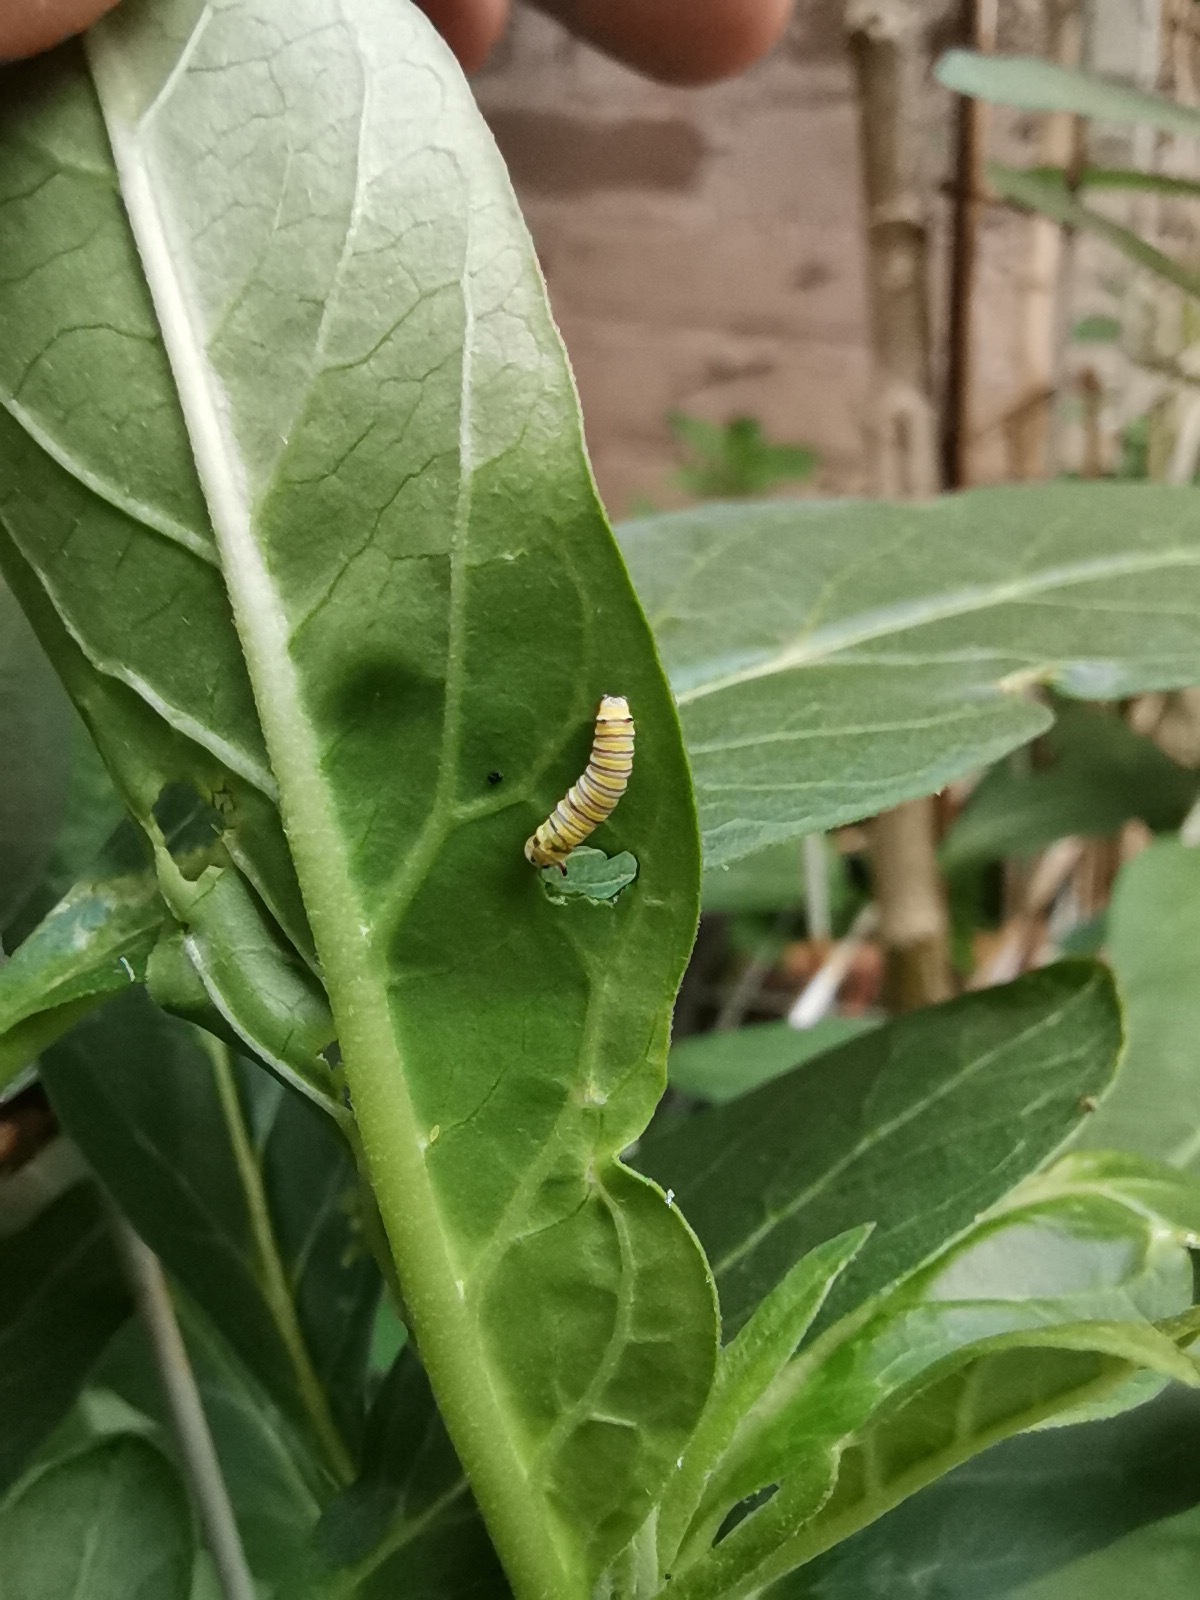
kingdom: Animalia
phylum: Arthropoda
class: Insecta
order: Lepidoptera
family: Nymphalidae
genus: Danaus
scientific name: Danaus plexippus
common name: Monarch
